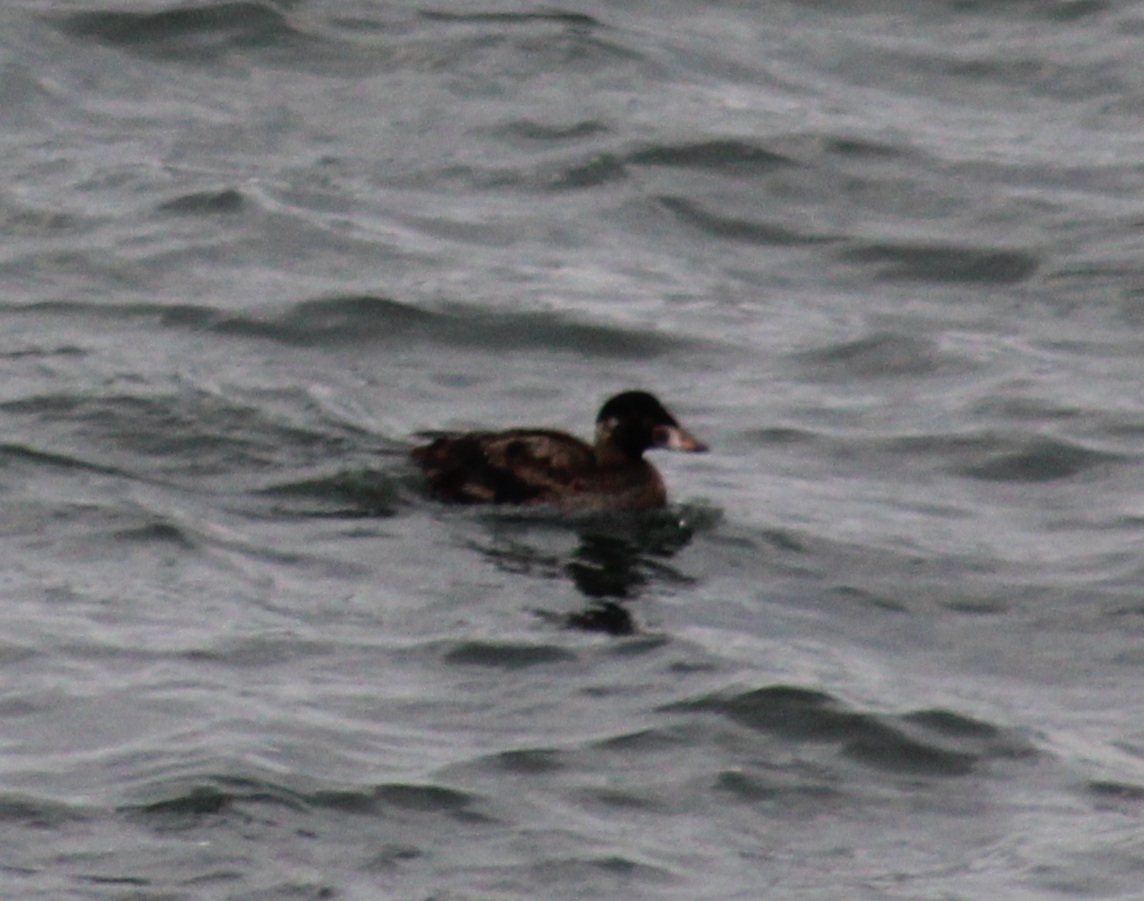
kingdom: Animalia
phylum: Chordata
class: Aves
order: Anseriformes
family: Anatidae
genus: Melanitta
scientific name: Melanitta perspicillata
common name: Surf scoter
